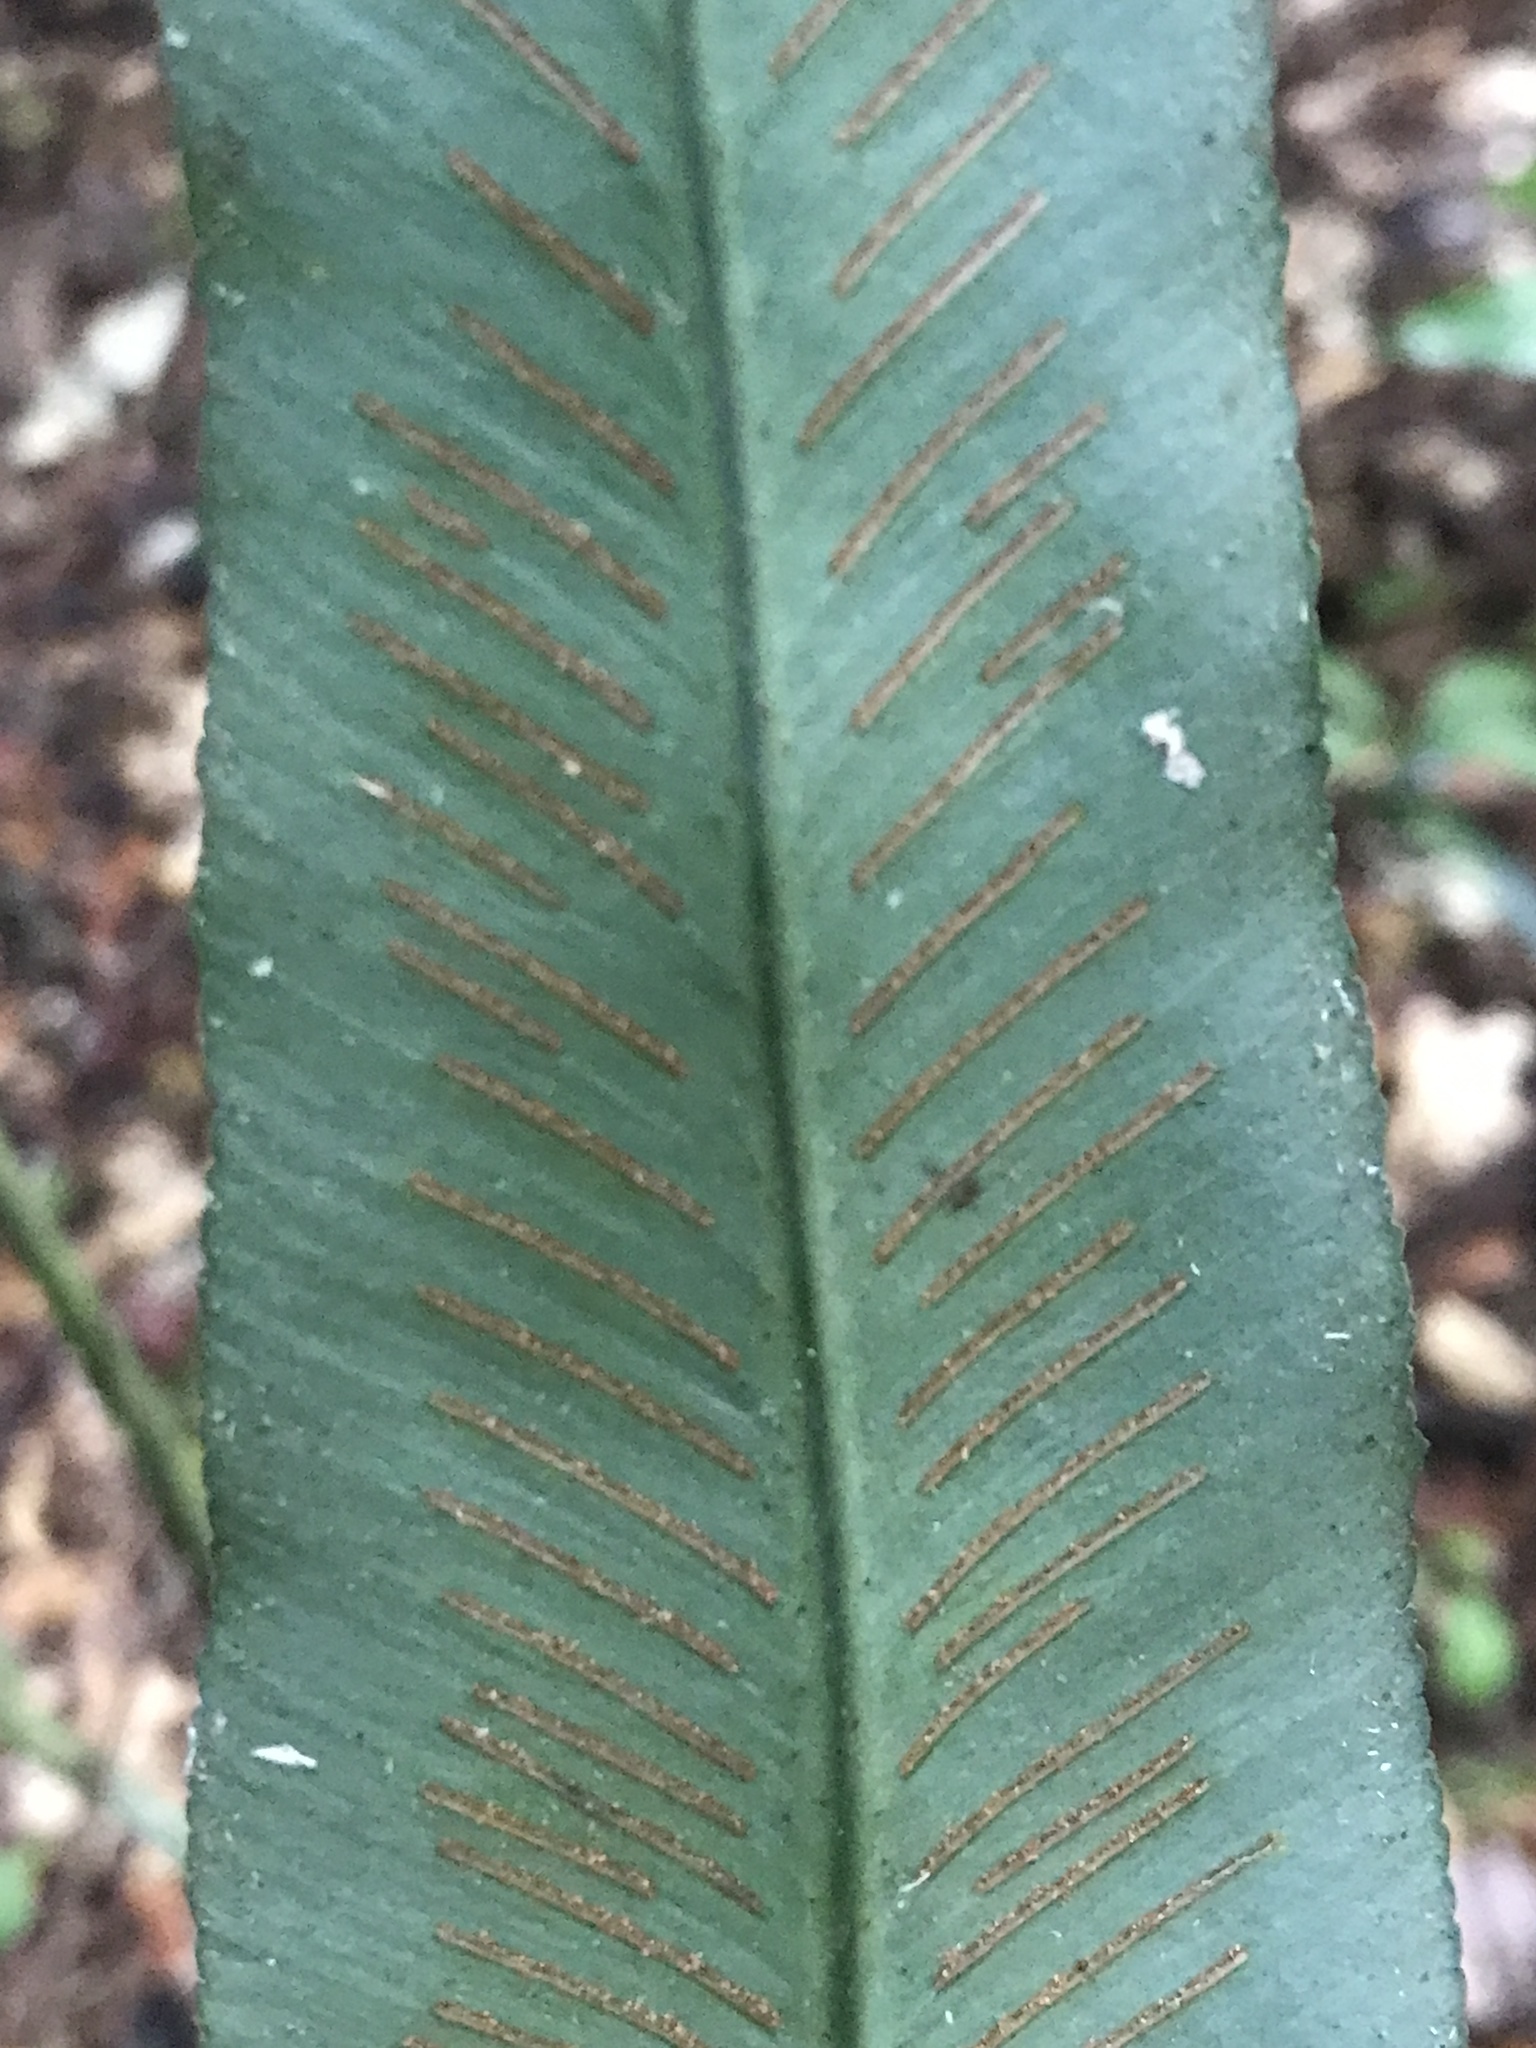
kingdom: Plantae
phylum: Tracheophyta
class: Polypodiopsida
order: Polypodiales
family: Aspleniaceae
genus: Asplenium
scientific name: Asplenium serratum
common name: Wild birdnest fern
